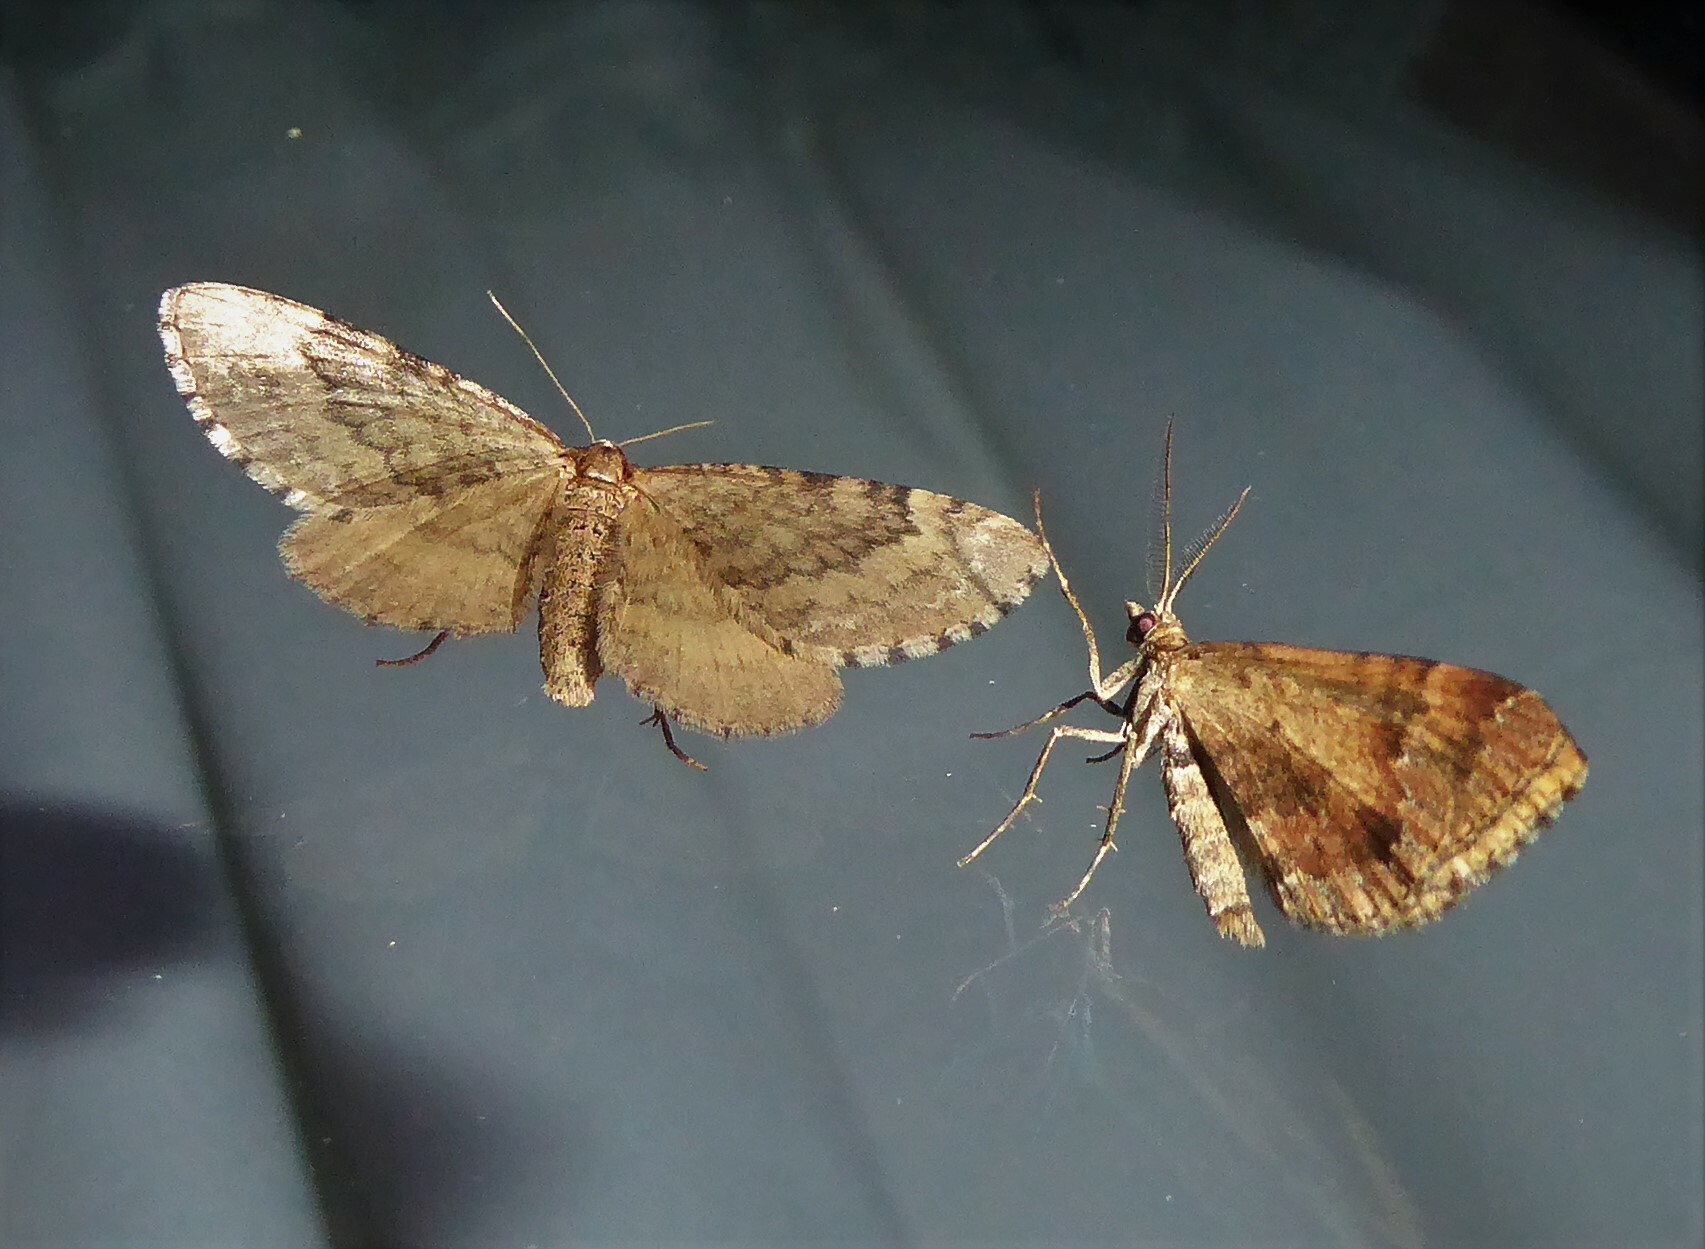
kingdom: Animalia
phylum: Arthropoda
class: Insecta
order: Lepidoptera
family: Geometridae
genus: Asaphodes
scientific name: Asaphodes aegrota
